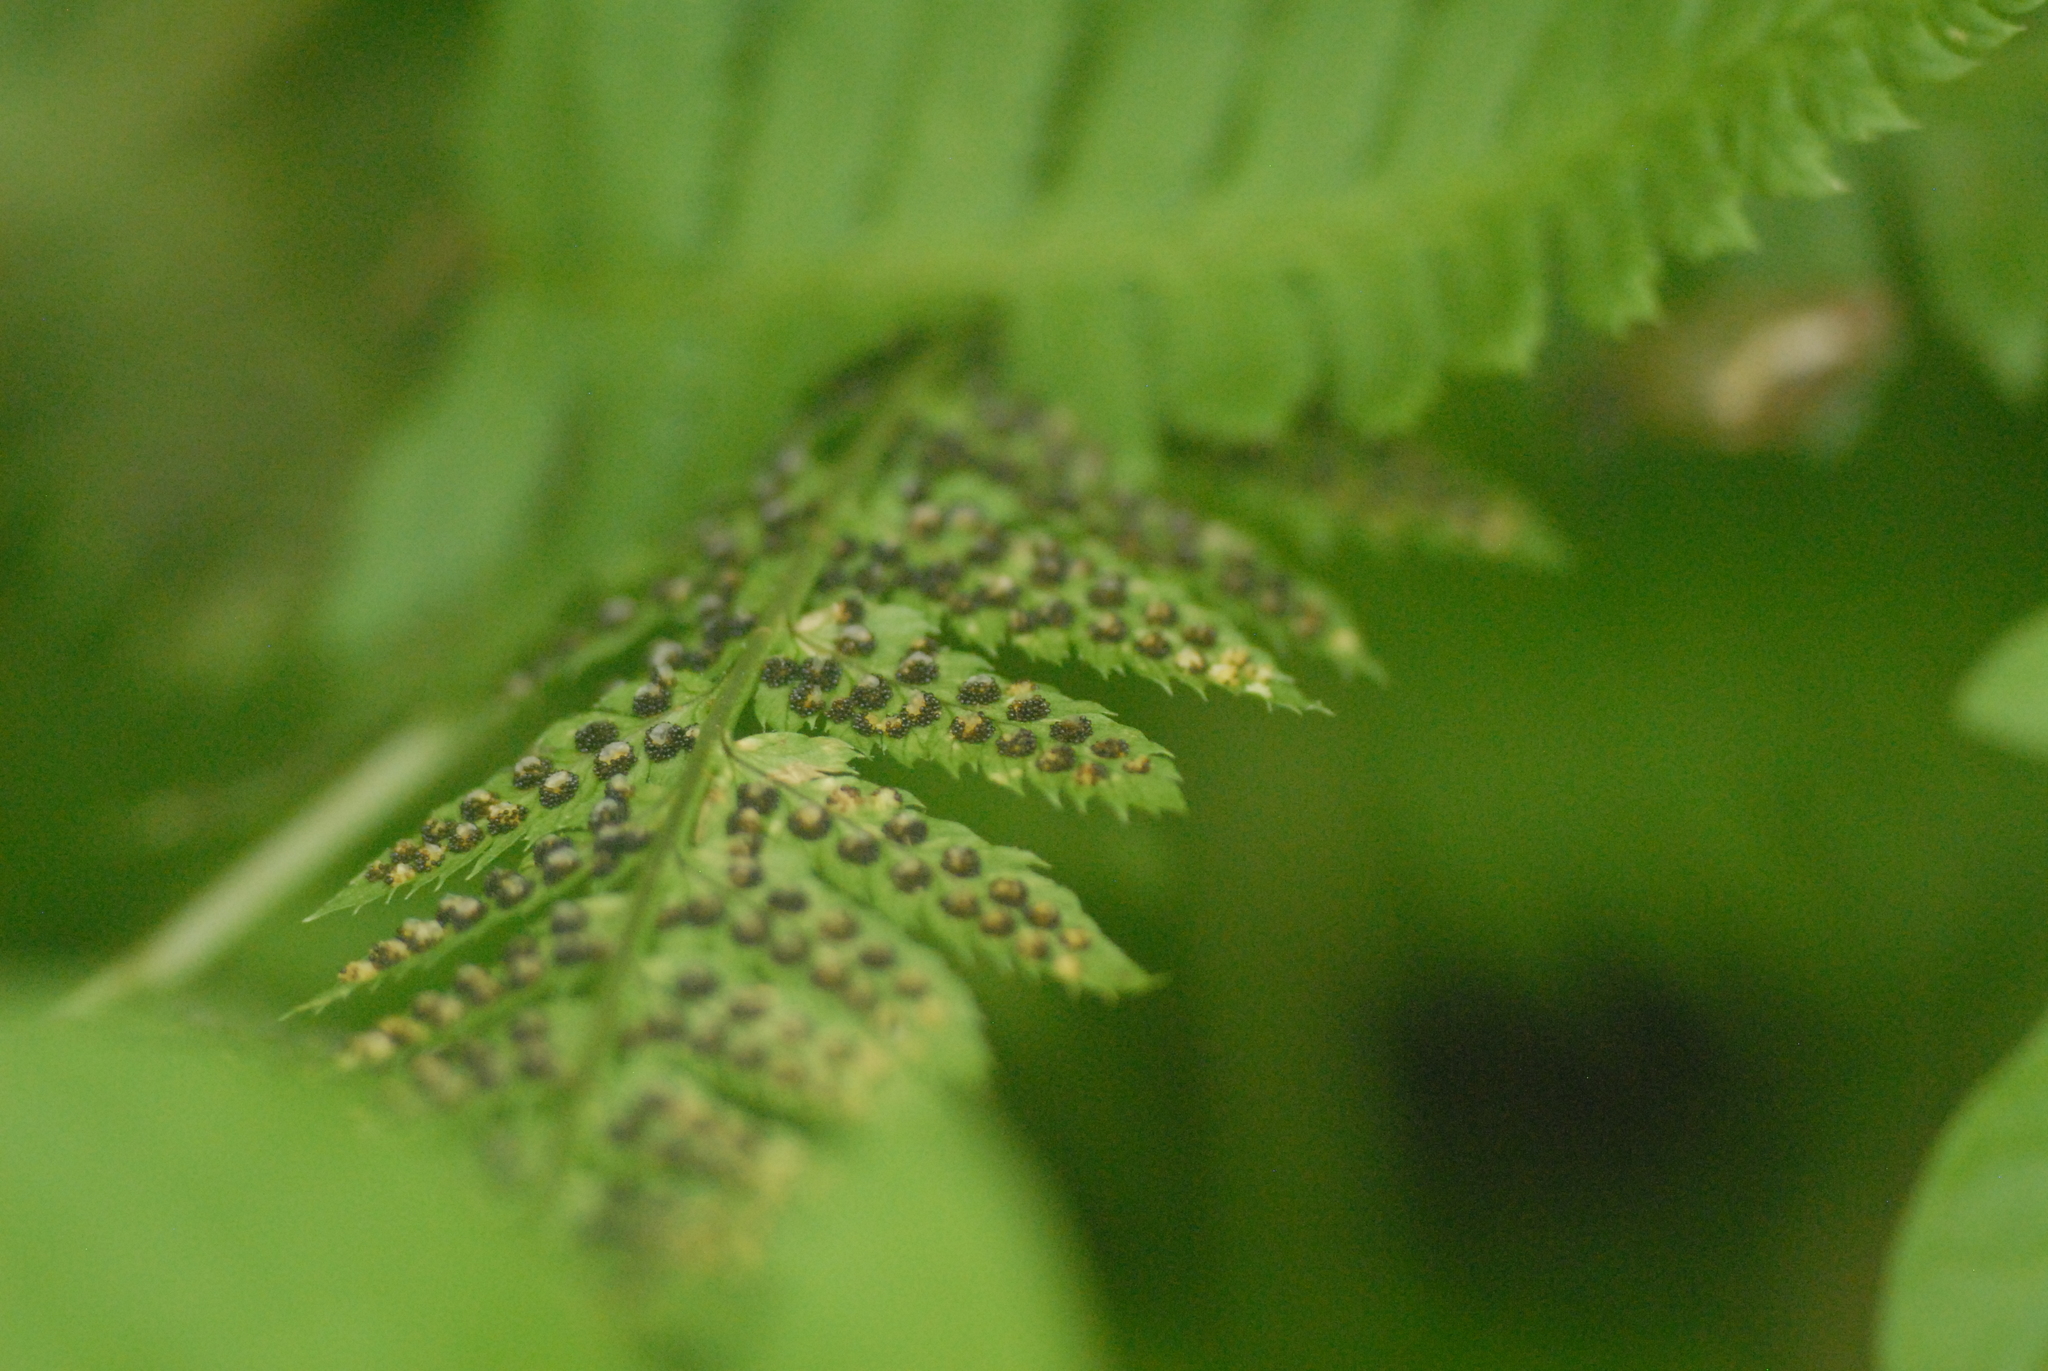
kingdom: Plantae
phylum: Tracheophyta
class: Polypodiopsida
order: Polypodiales
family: Dryopteridaceae
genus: Dryopteris
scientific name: Dryopteris carthusiana
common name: Narrow buckler-fern
